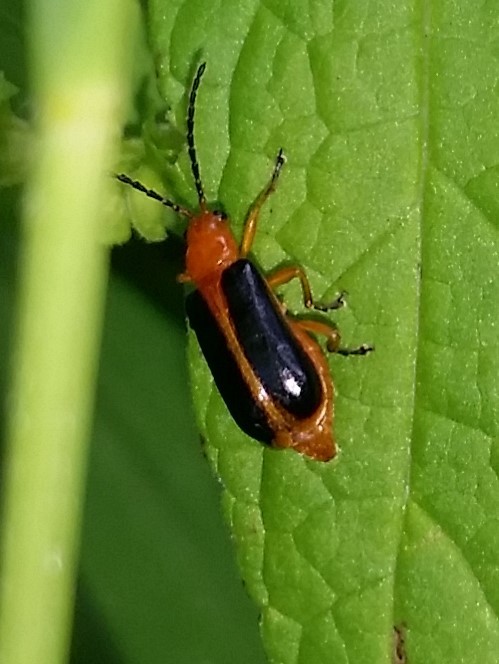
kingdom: Animalia
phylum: Arthropoda
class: Insecta
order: Coleoptera
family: Chrysomelidae
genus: Phyllobrotica
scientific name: Phyllobrotica limbata
